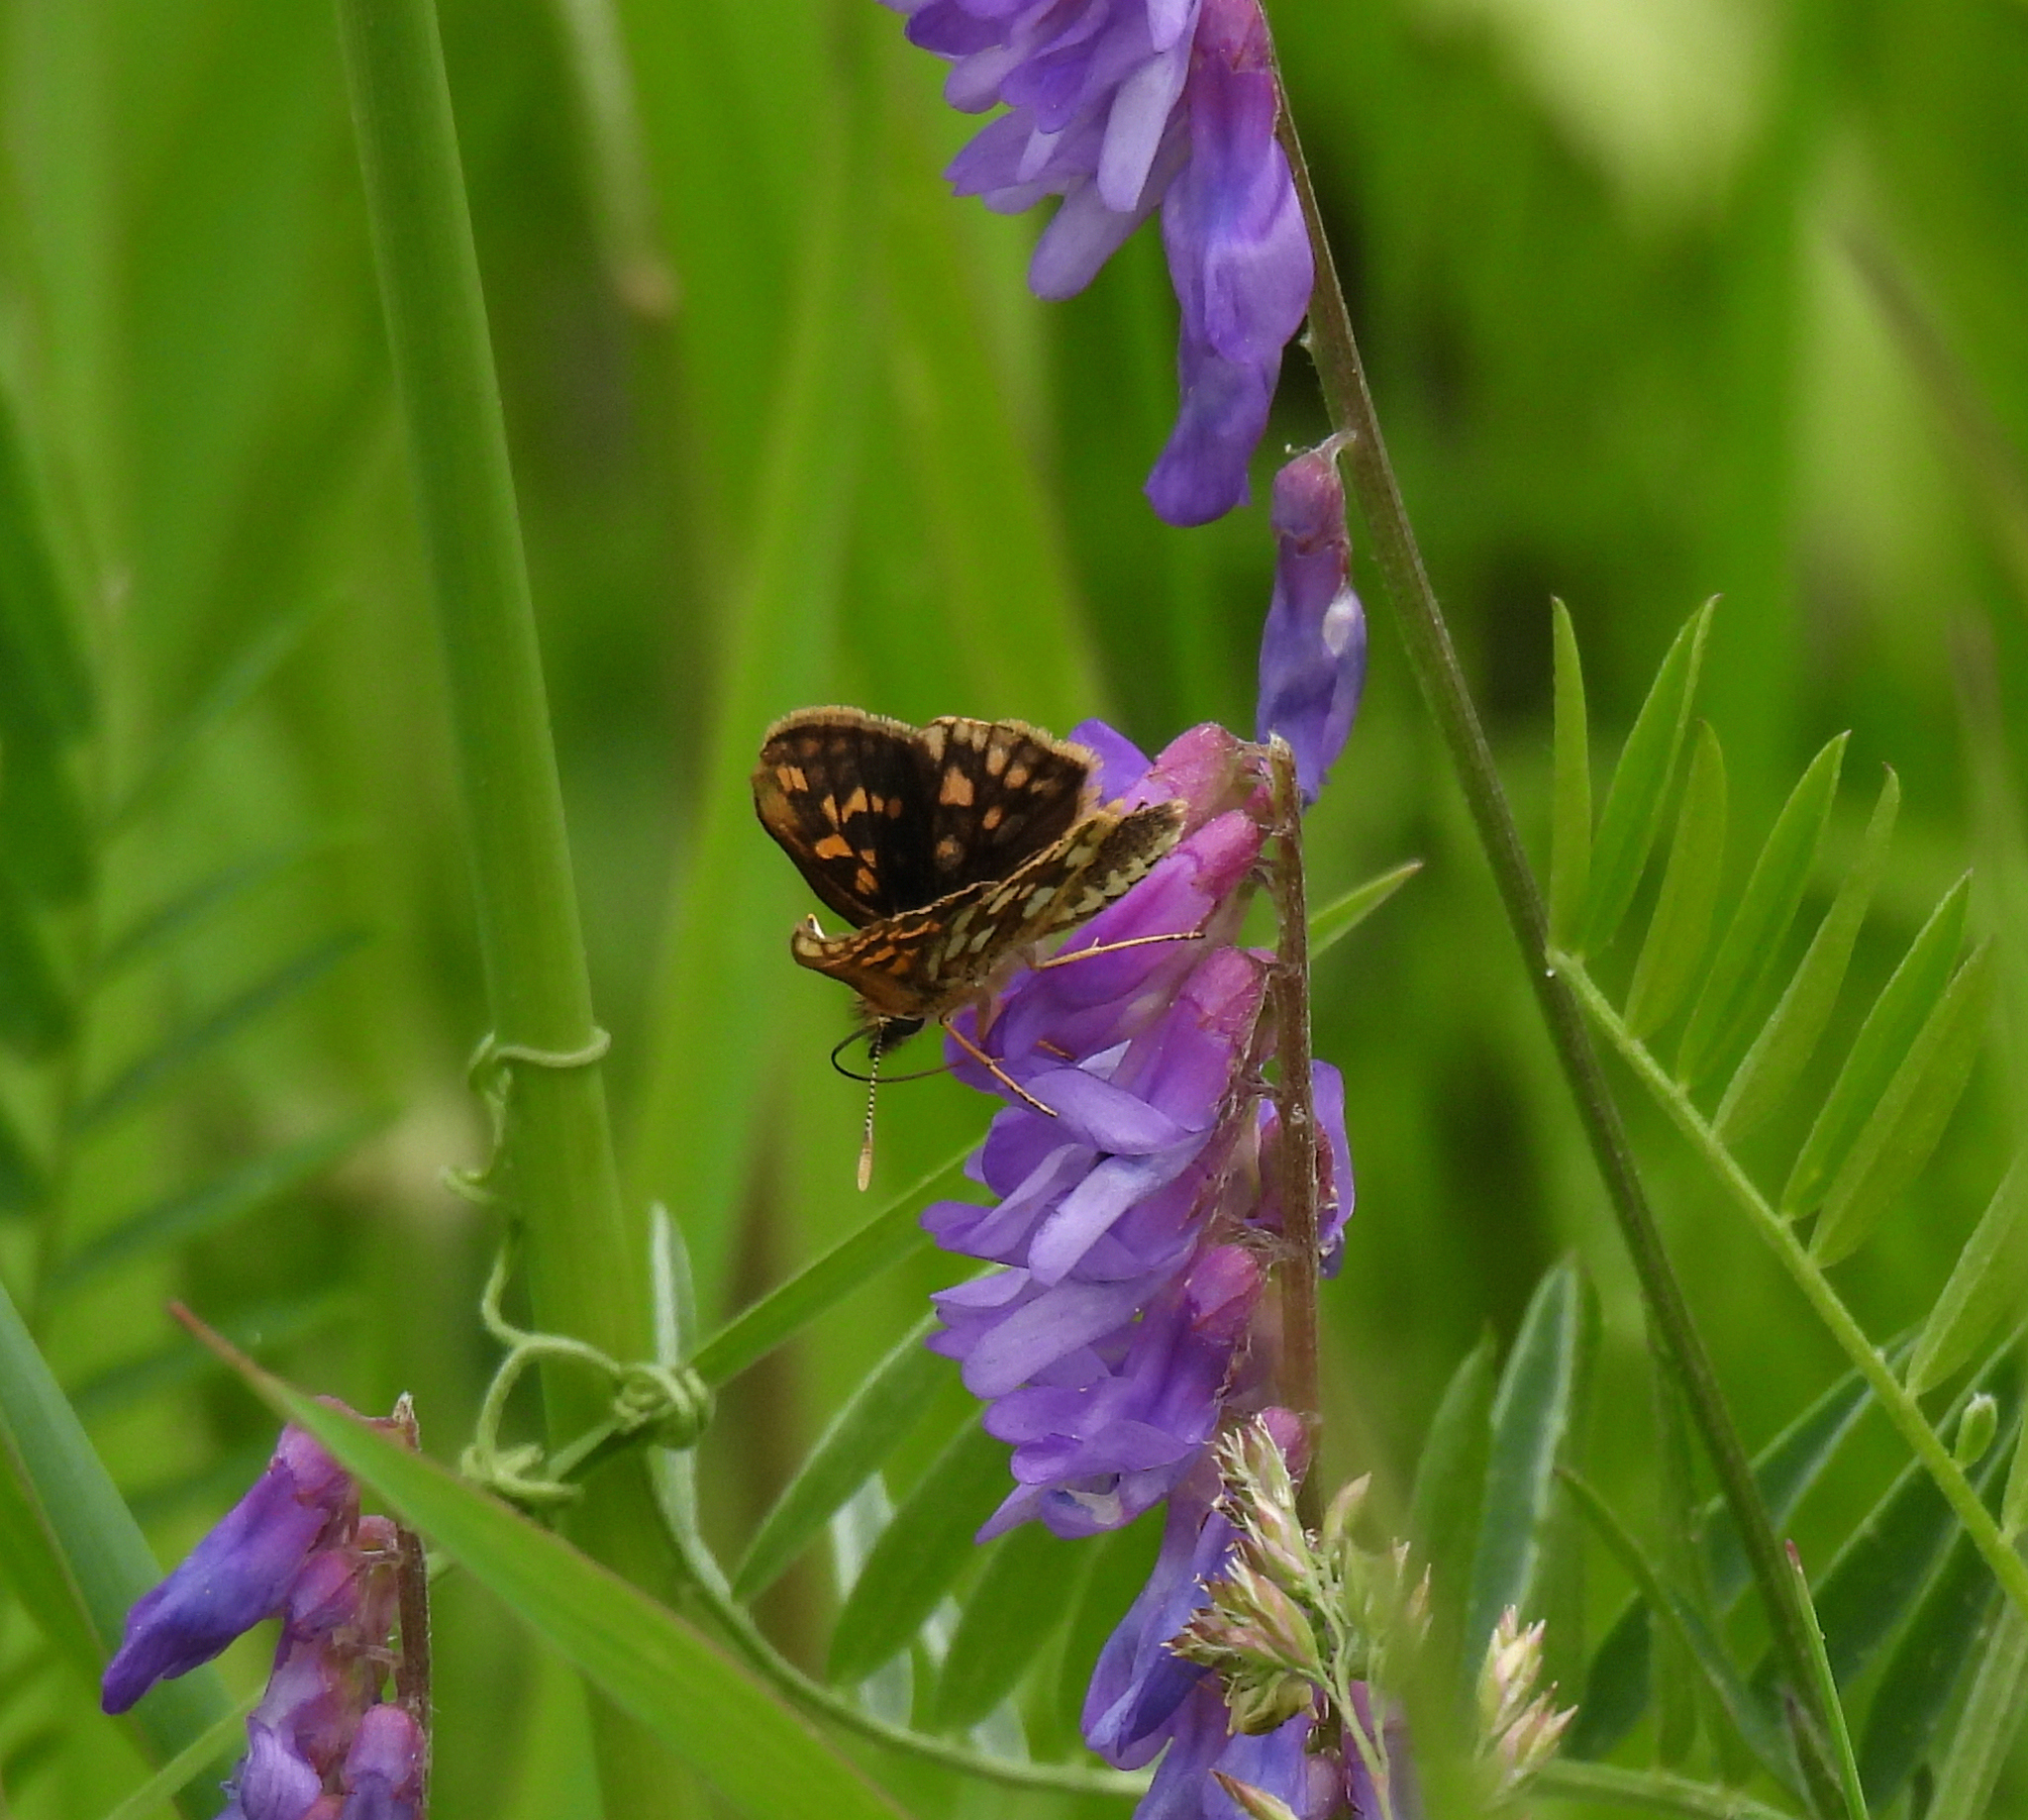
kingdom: Animalia
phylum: Arthropoda
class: Insecta
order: Lepidoptera
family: Hesperiidae
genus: Carterocephalus
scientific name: Carterocephalus mandan
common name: Arctic skipperling
